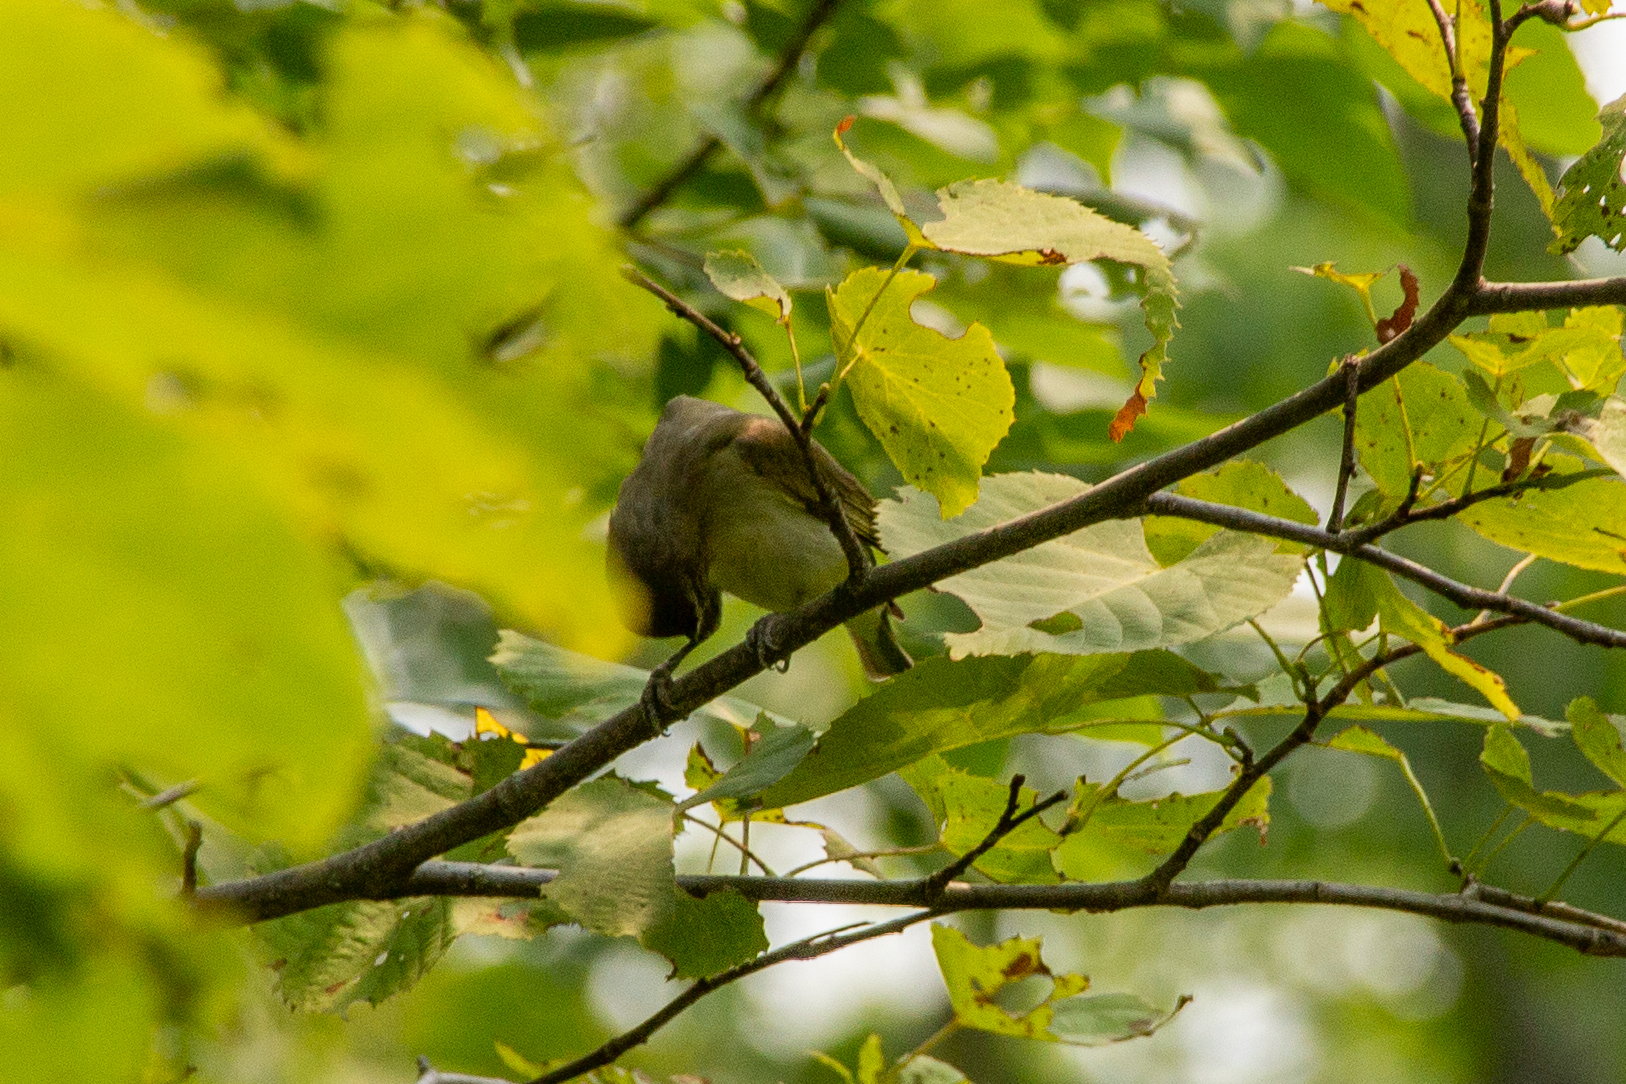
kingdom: Animalia
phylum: Chordata
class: Aves
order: Passeriformes
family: Vireonidae
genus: Vireo
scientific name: Vireo olivaceus
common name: Red-eyed vireo
